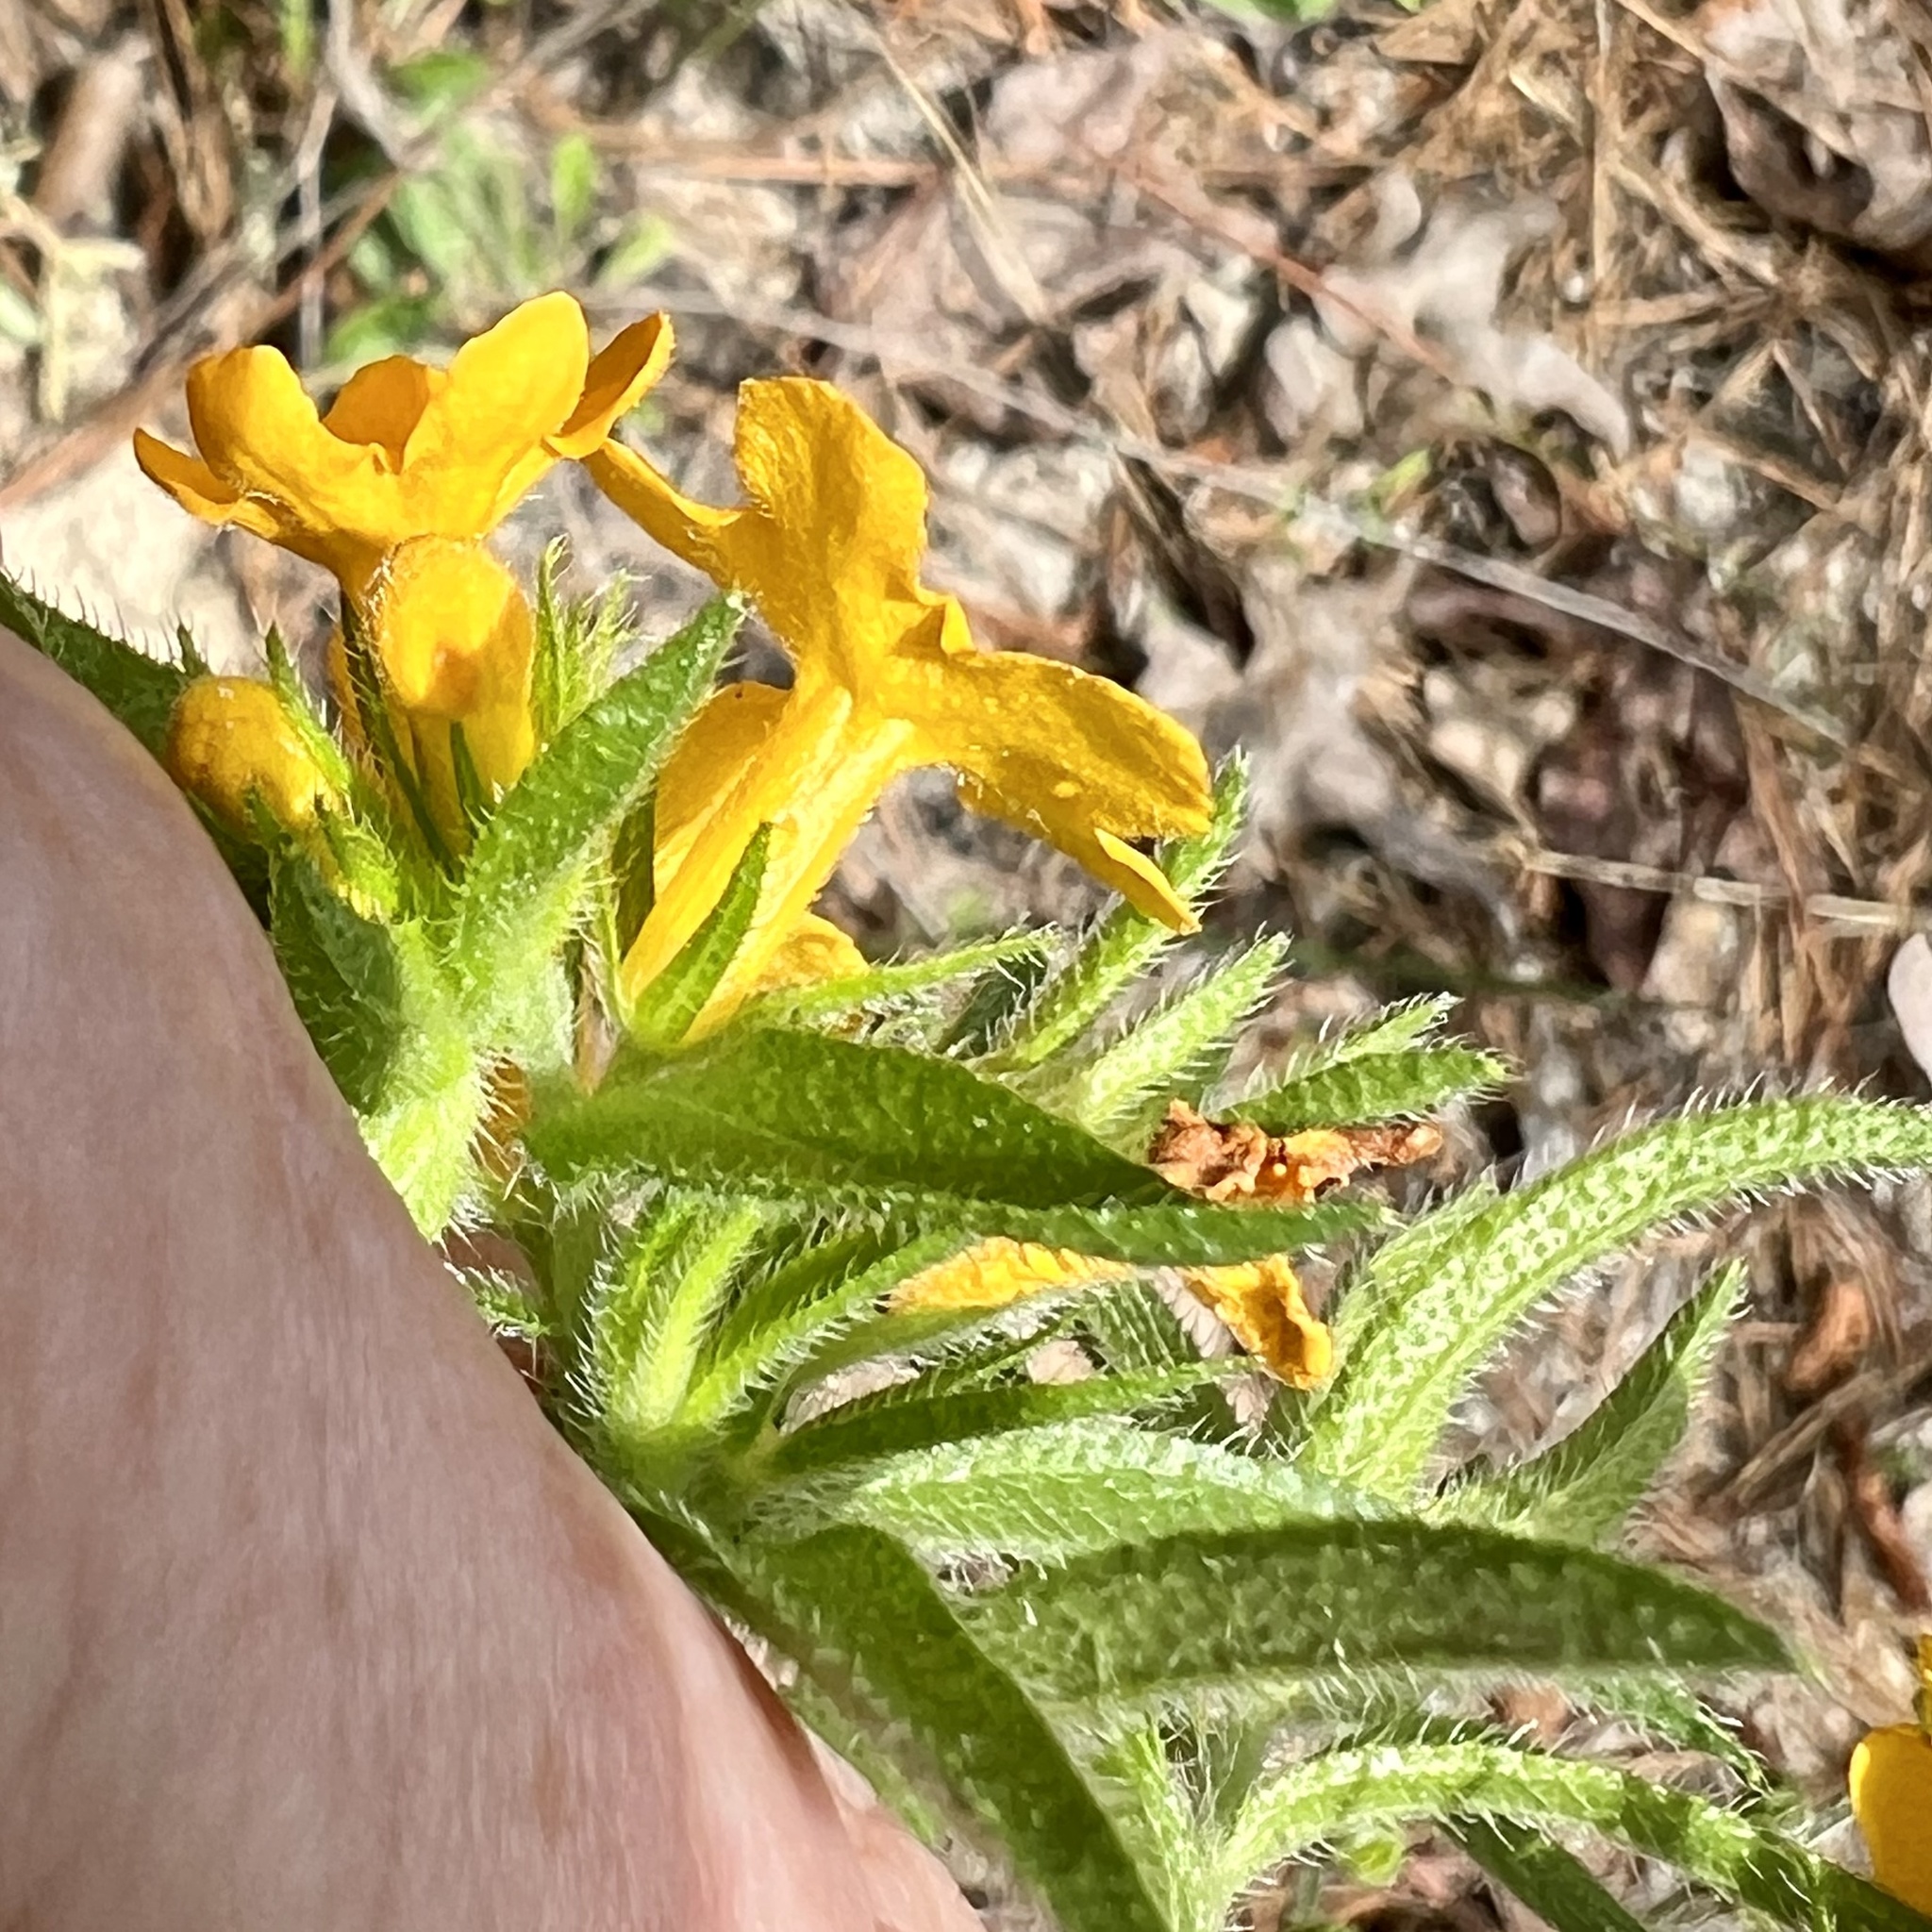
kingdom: Plantae
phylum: Tracheophyta
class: Magnoliopsida
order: Boraginales
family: Boraginaceae
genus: Lithospermum
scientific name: Lithospermum caroliniense
